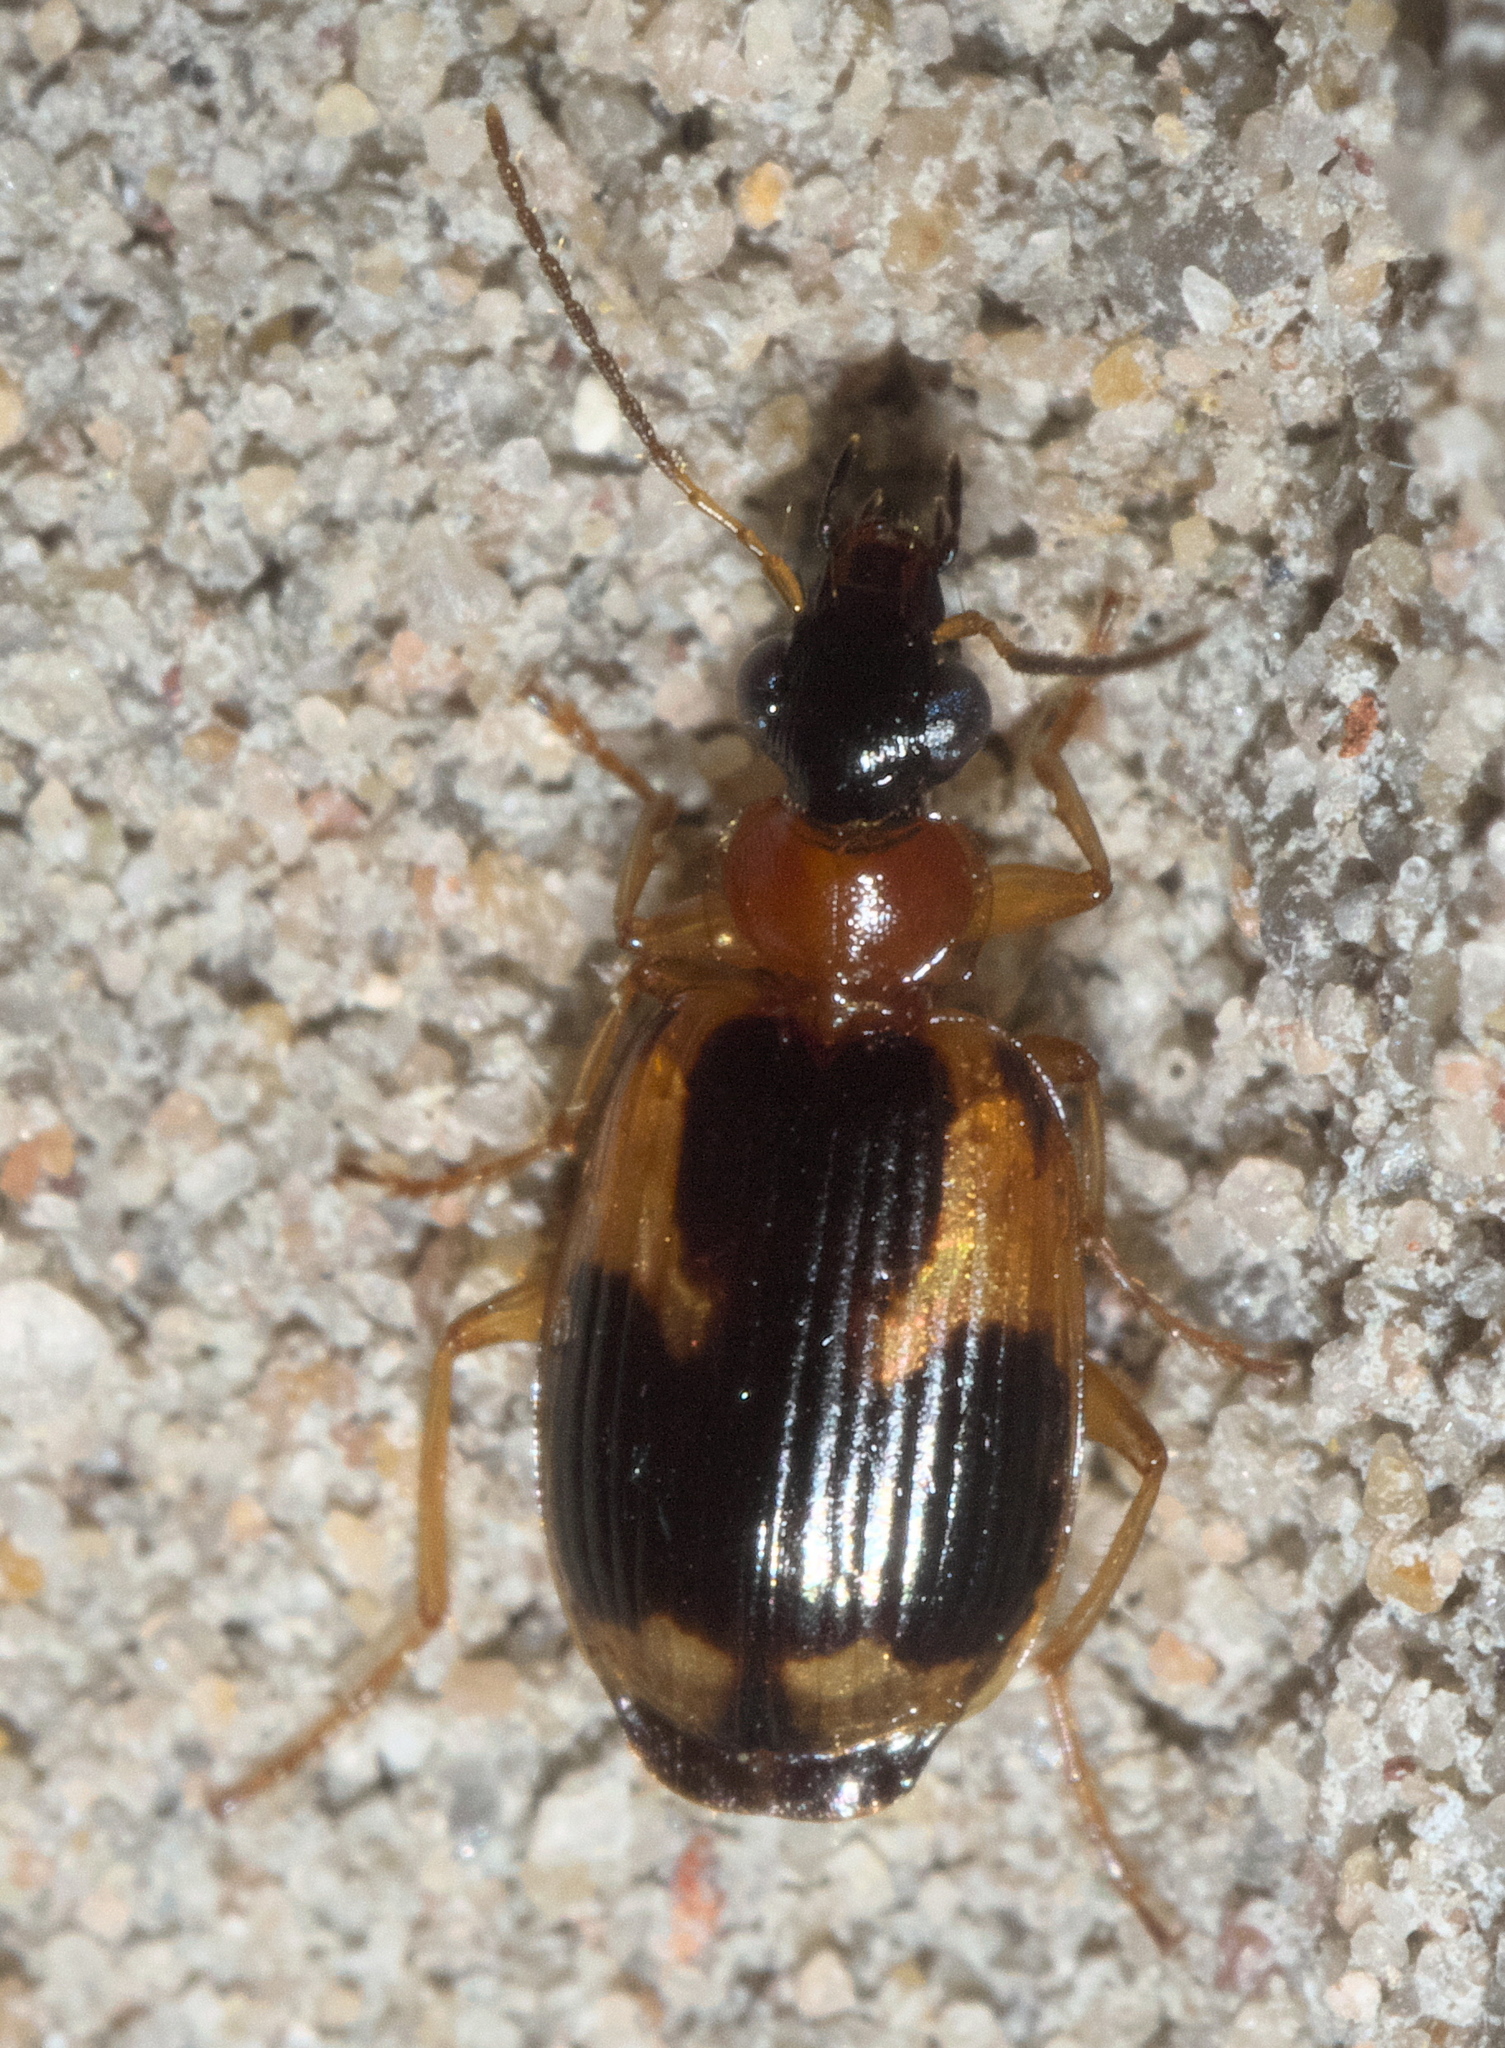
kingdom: Animalia
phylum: Arthropoda
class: Insecta
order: Coleoptera
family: Carabidae
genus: Lebia
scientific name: Lebia analis
